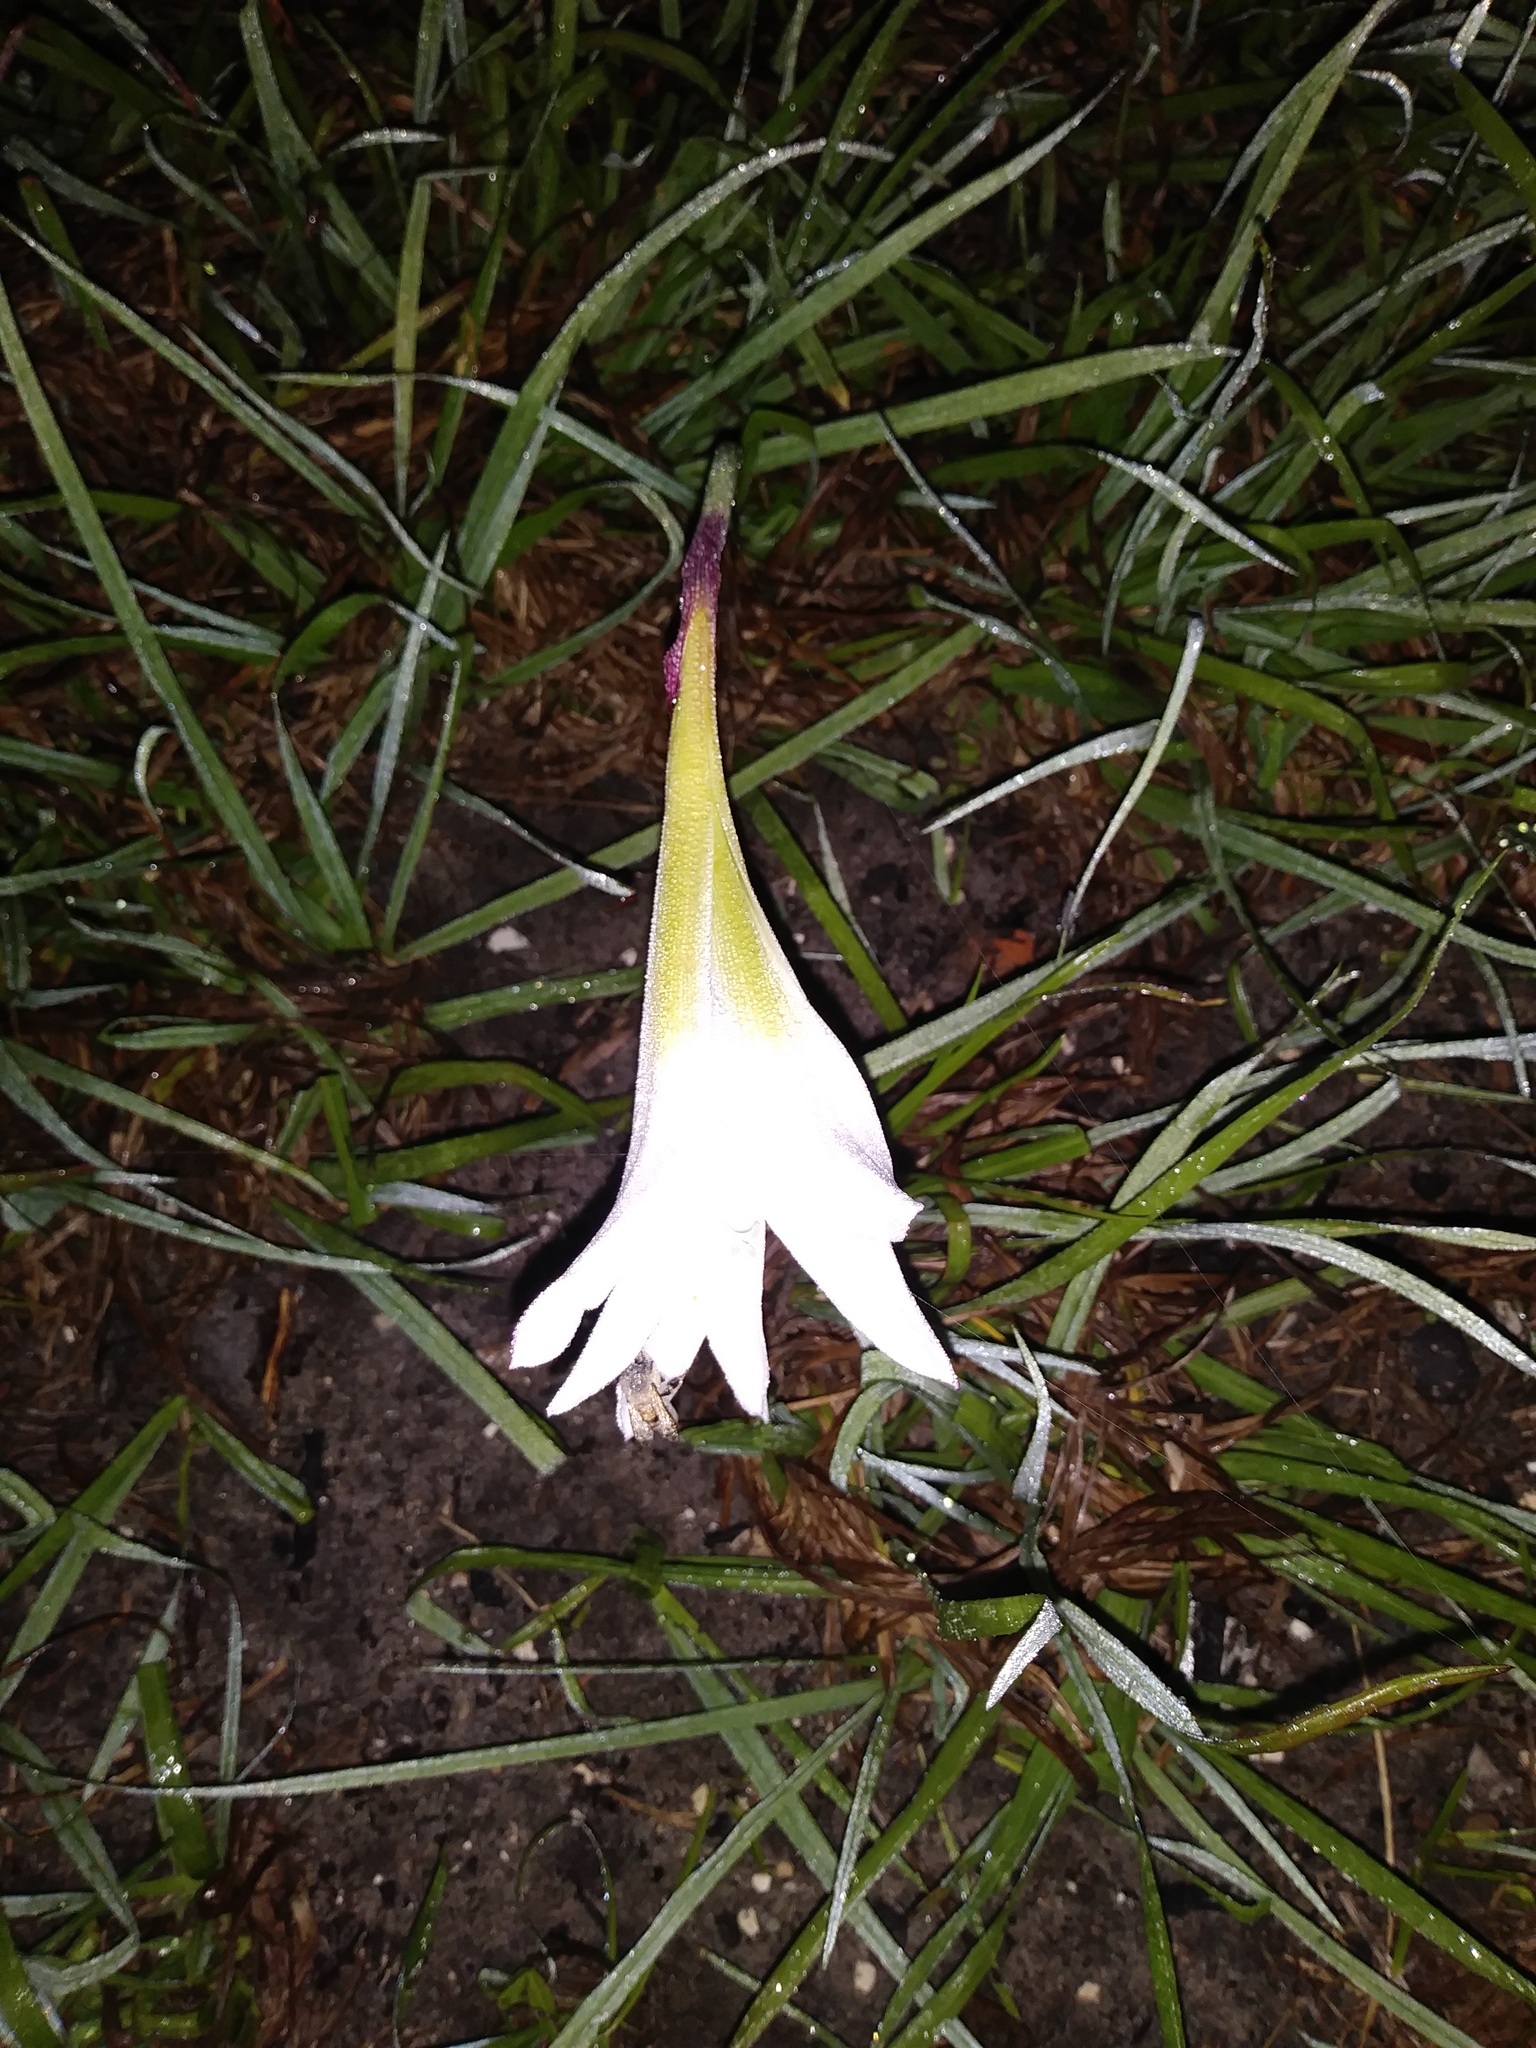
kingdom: Plantae
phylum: Tracheophyta
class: Liliopsida
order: Asparagales
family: Amaryllidaceae
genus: Zephyranthes
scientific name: Zephyranthes atamasco
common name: Atamasco lily
